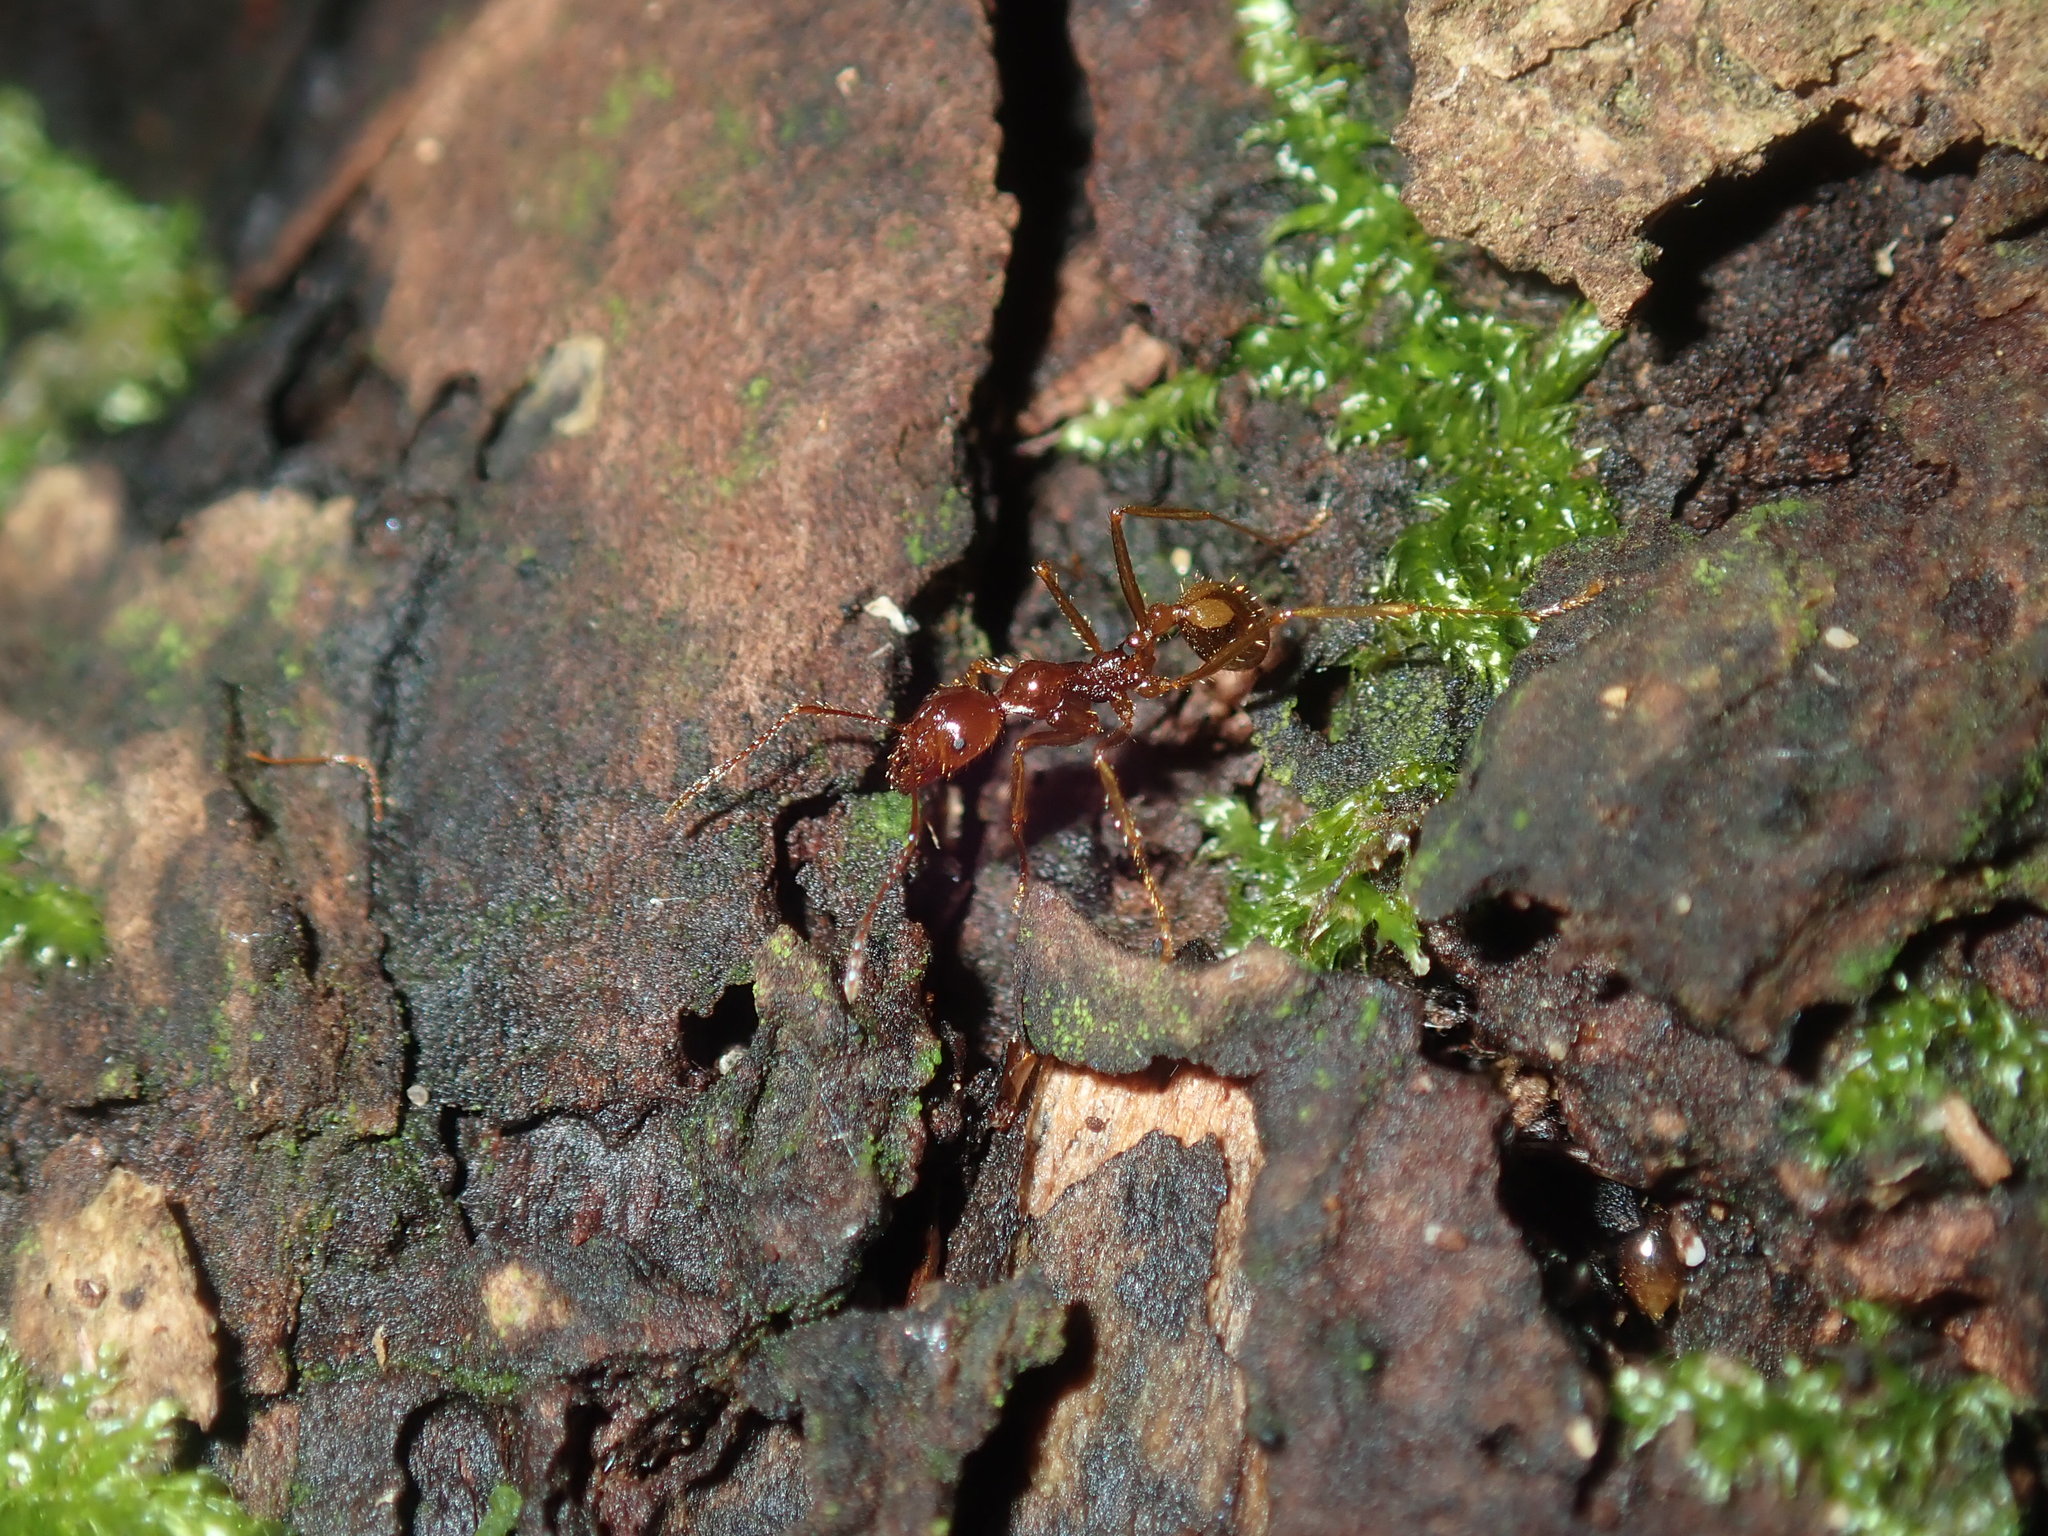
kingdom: Animalia
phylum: Arthropoda
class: Insecta
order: Hymenoptera
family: Formicidae
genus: Aphaenogaster
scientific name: Aphaenogaster longiceps
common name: Funnel ant
